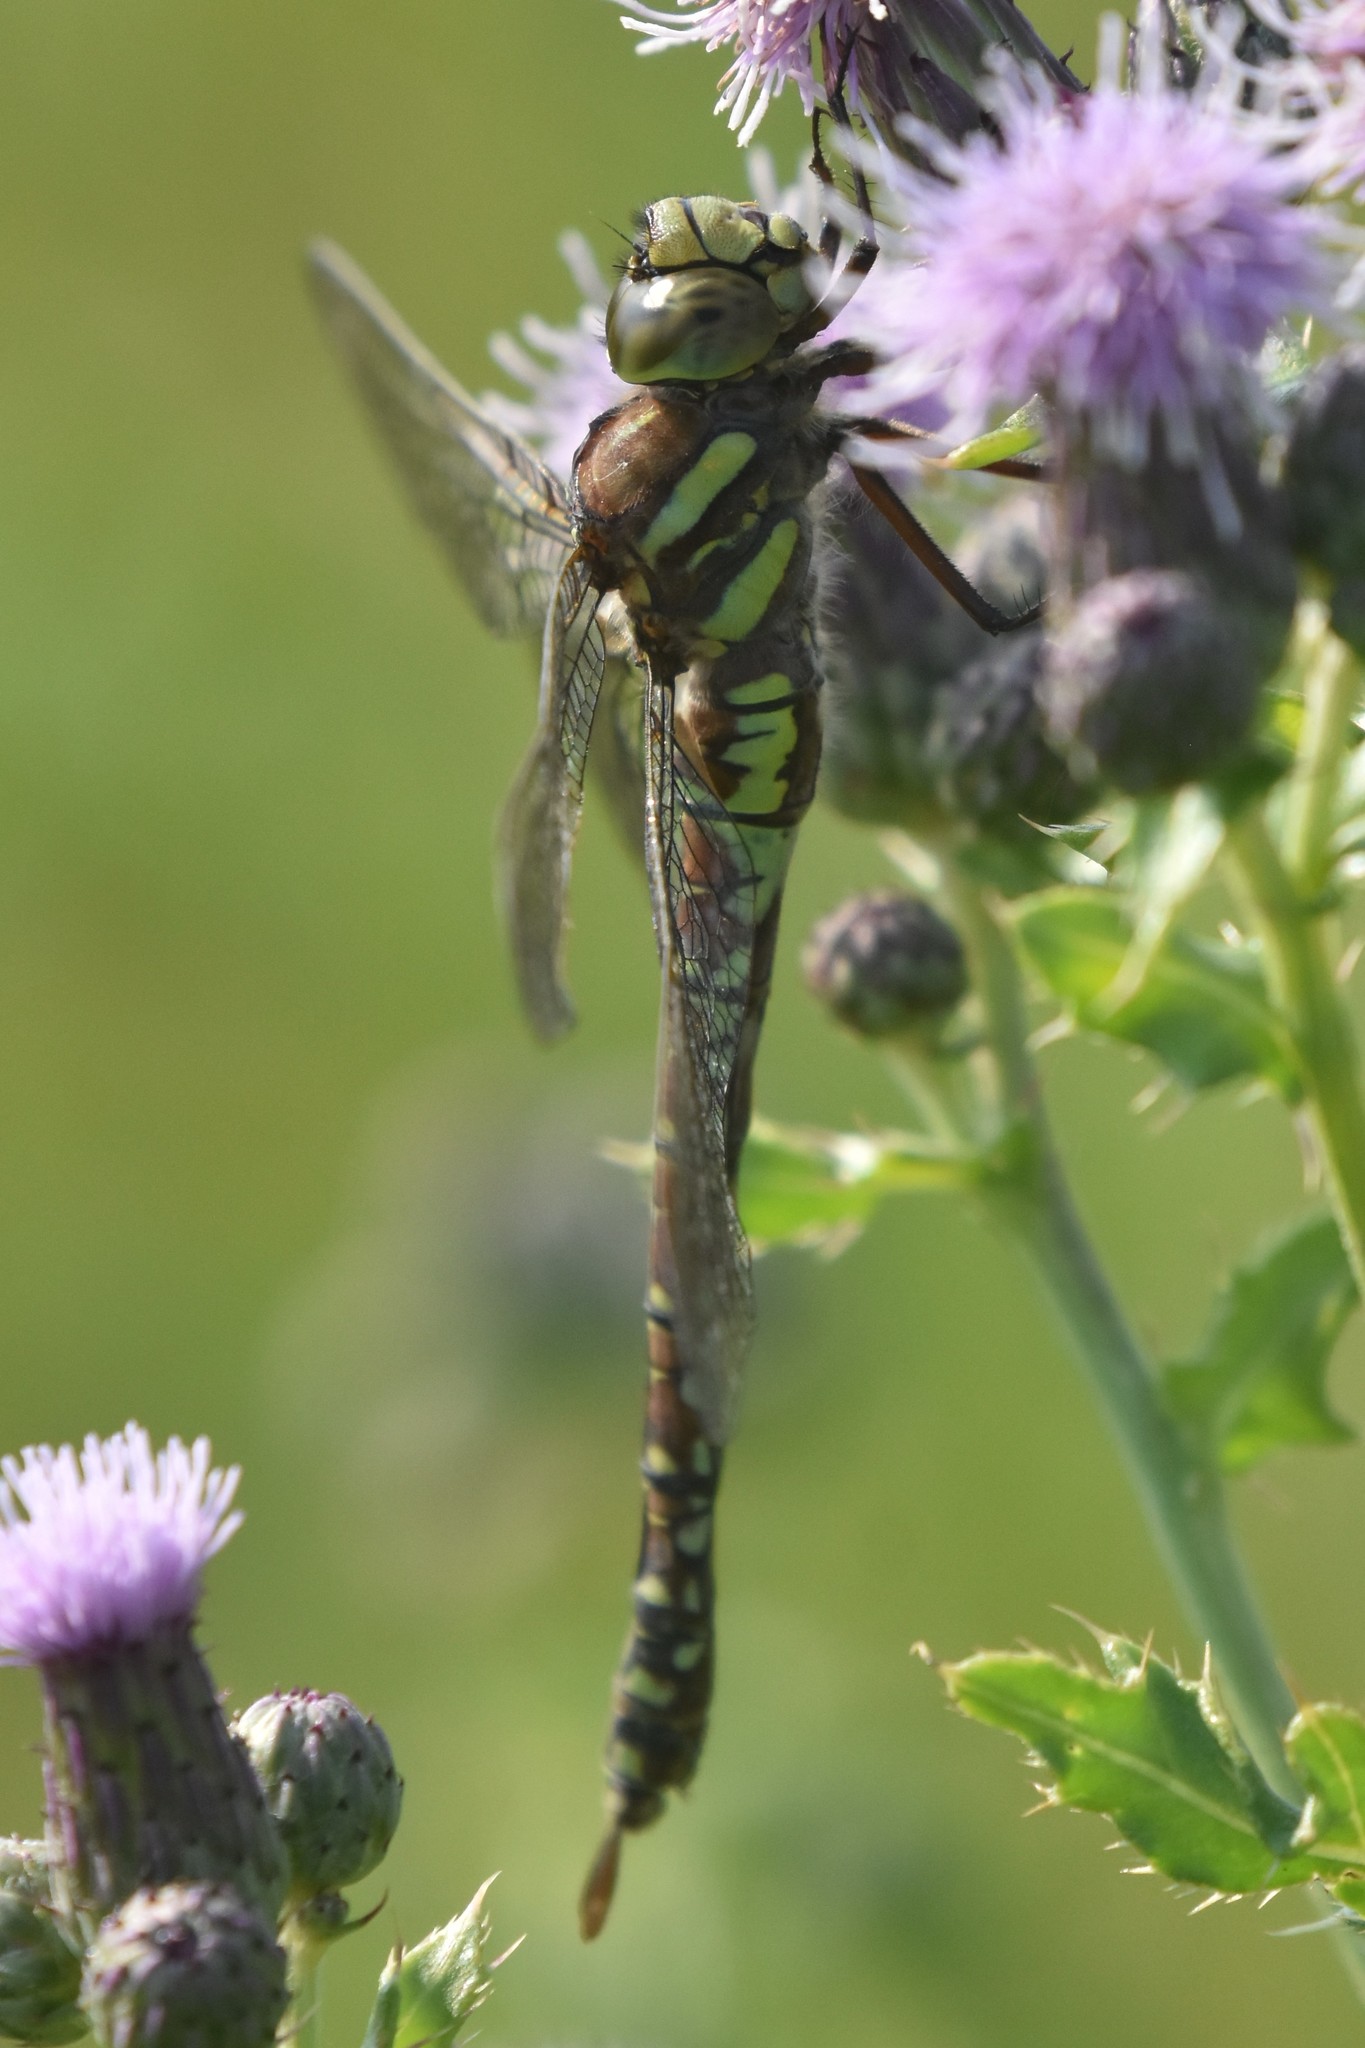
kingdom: Animalia
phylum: Arthropoda
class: Insecta
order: Odonata
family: Aeshnidae
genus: Aeshna
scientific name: Aeshna juncea
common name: Moorland hawker
